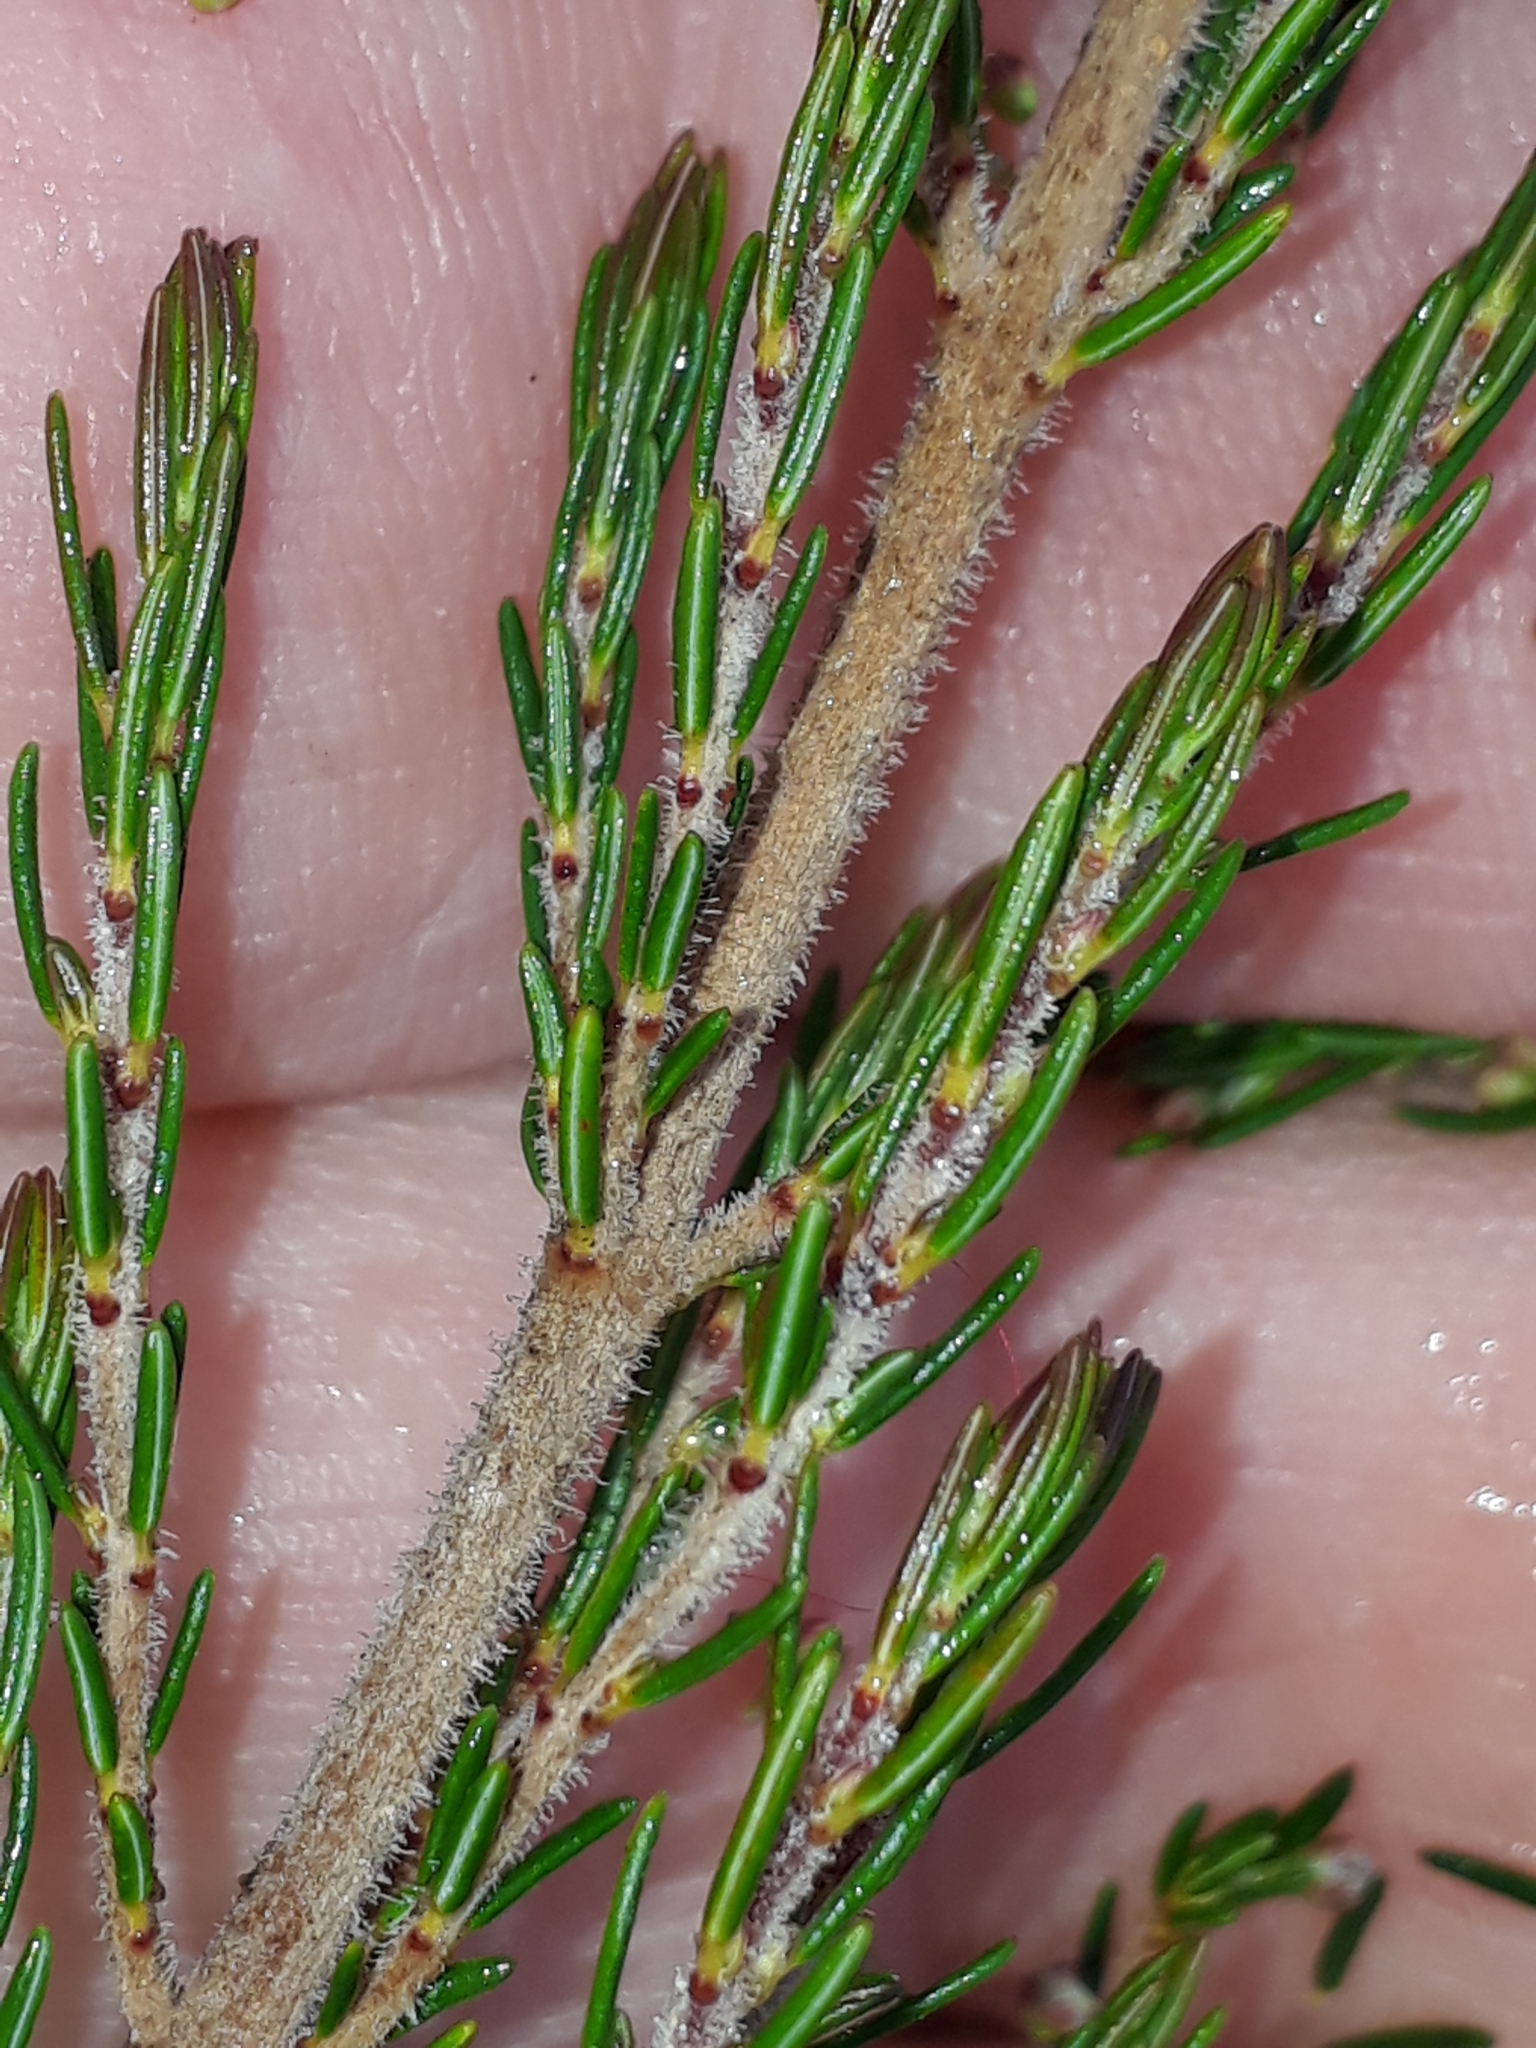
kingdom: Plantae
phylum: Tracheophyta
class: Magnoliopsida
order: Ericales
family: Ericaceae
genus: Erica
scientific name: Erica arborea
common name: Tree heath
